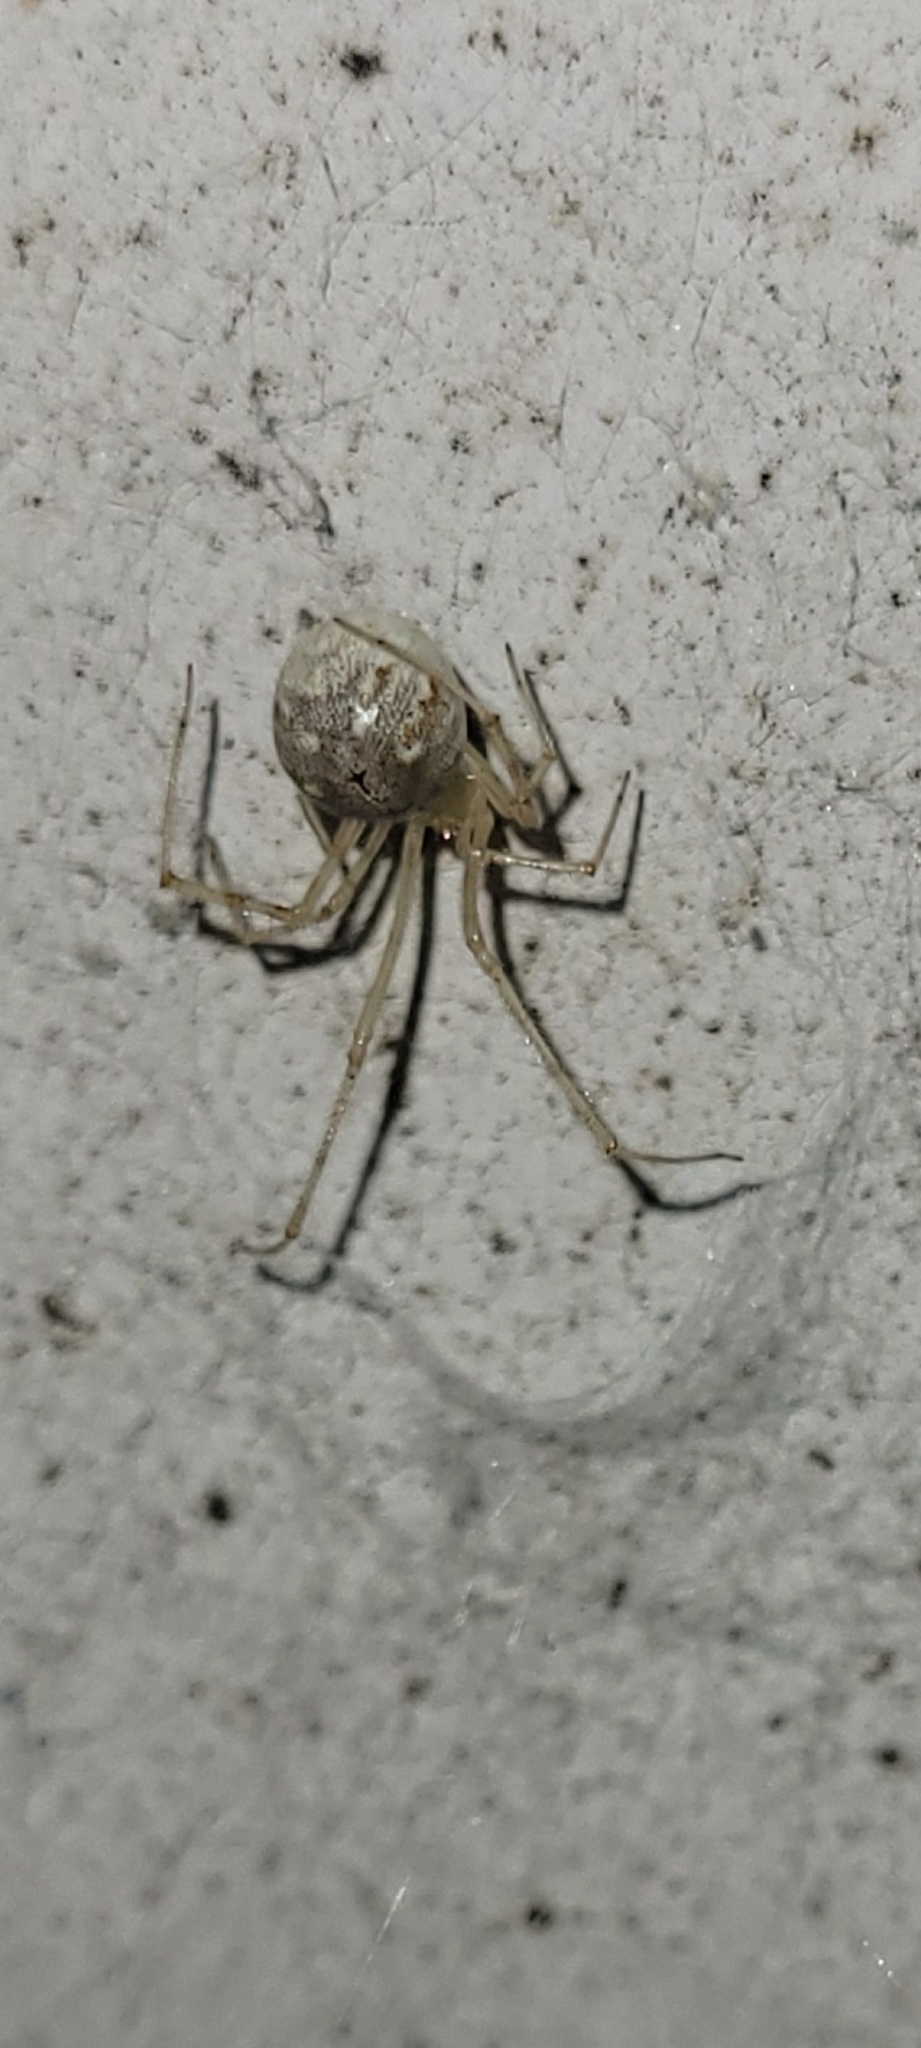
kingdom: Animalia
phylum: Arthropoda
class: Arachnida
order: Araneae
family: Theridiidae
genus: Cryptachaea
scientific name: Cryptachaea gigantipes
